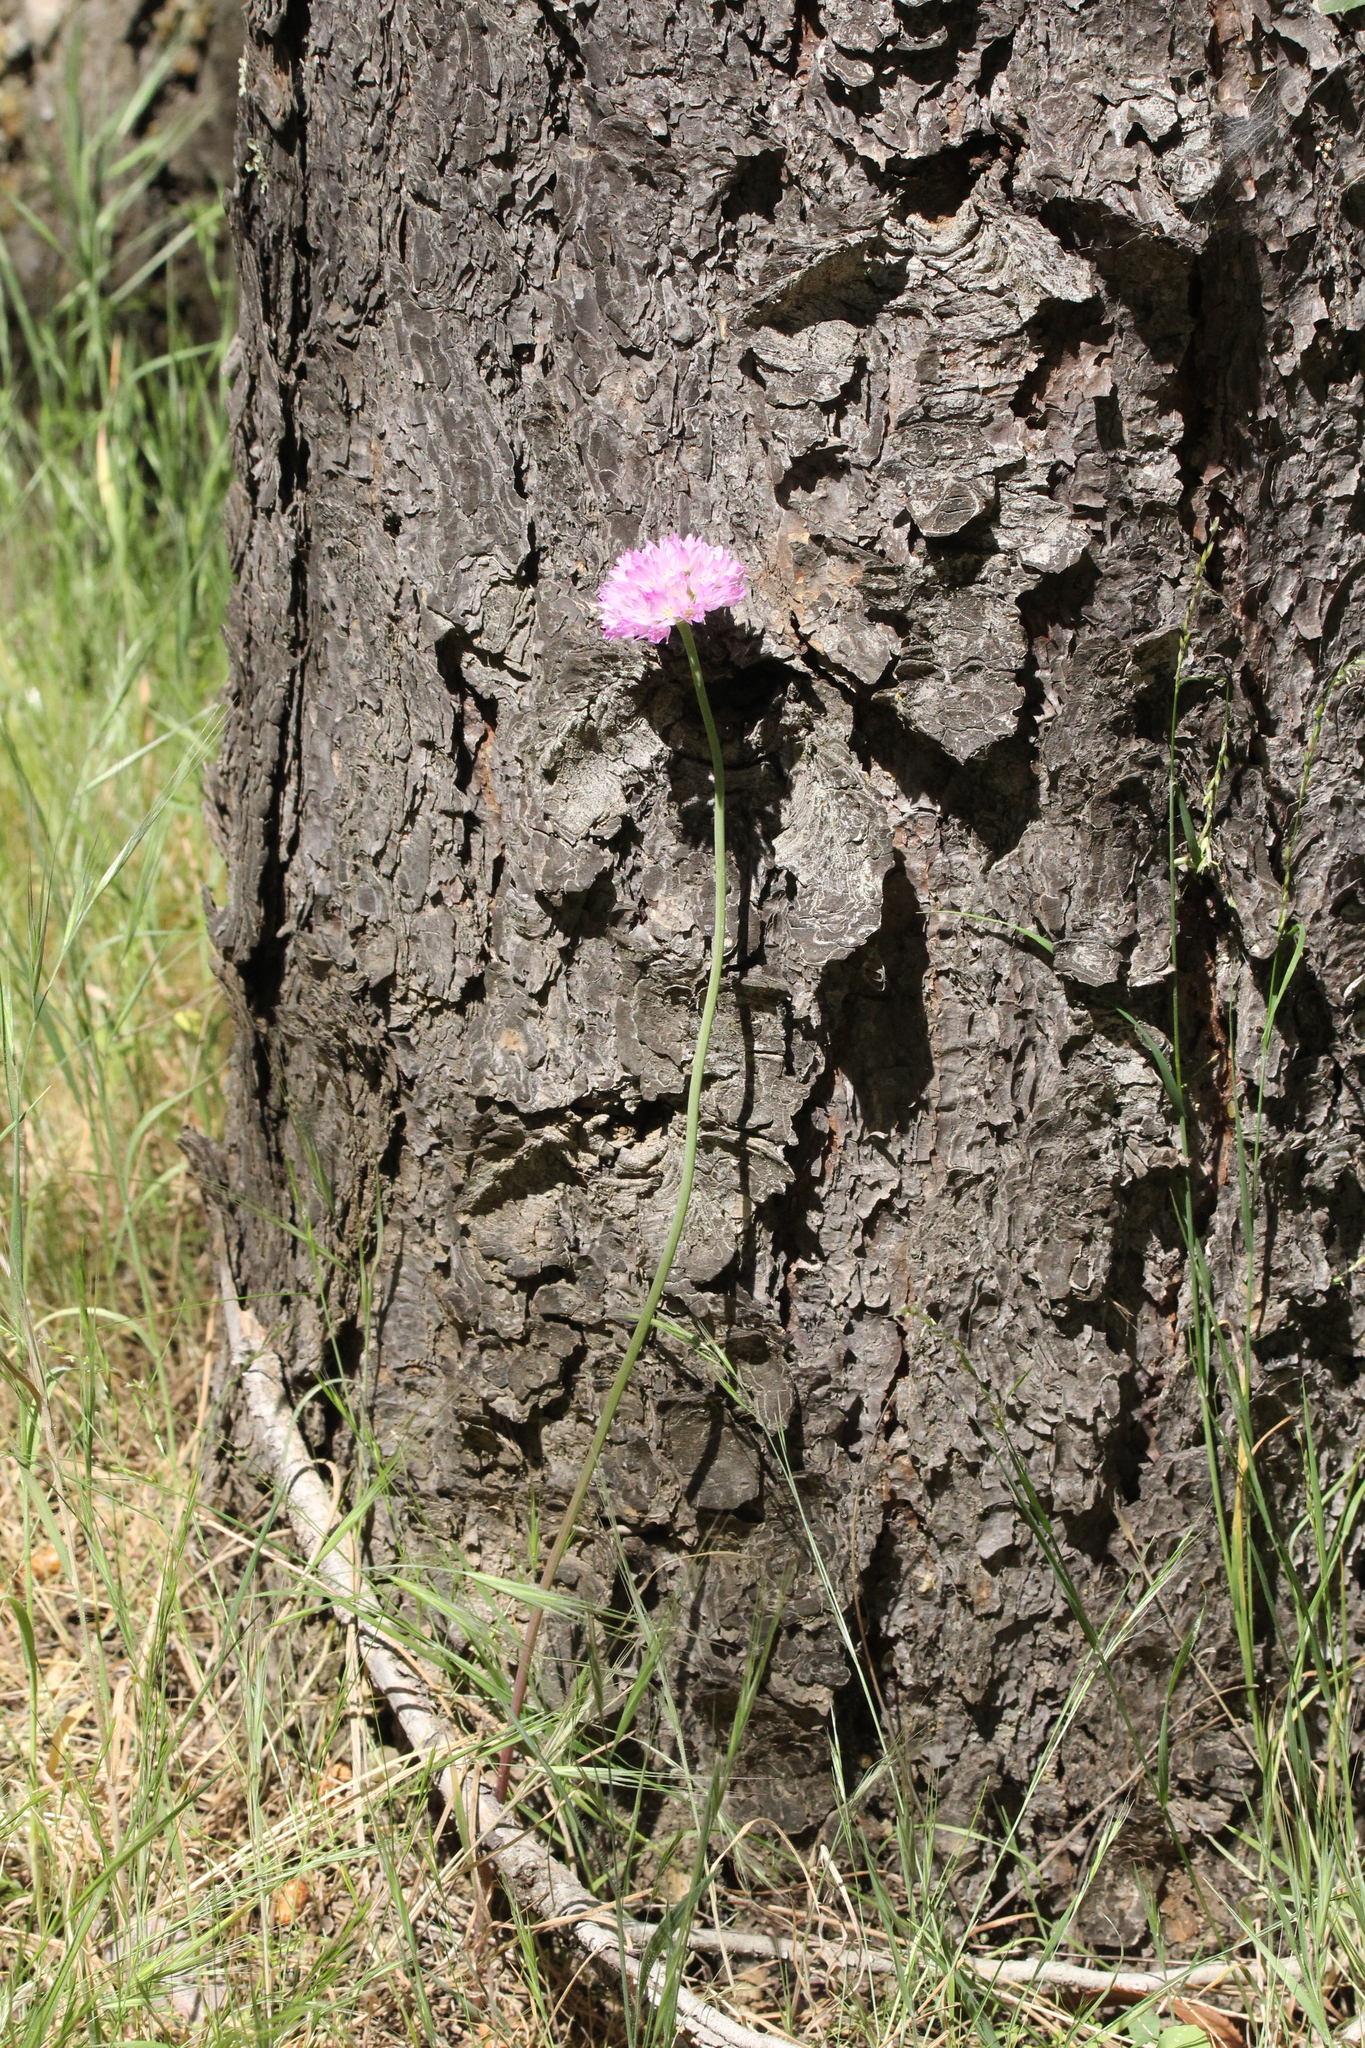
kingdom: Plantae
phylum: Tracheophyta
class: Liliopsida
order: Asparagales
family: Amaryllidaceae
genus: Allium
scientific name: Allium serra
